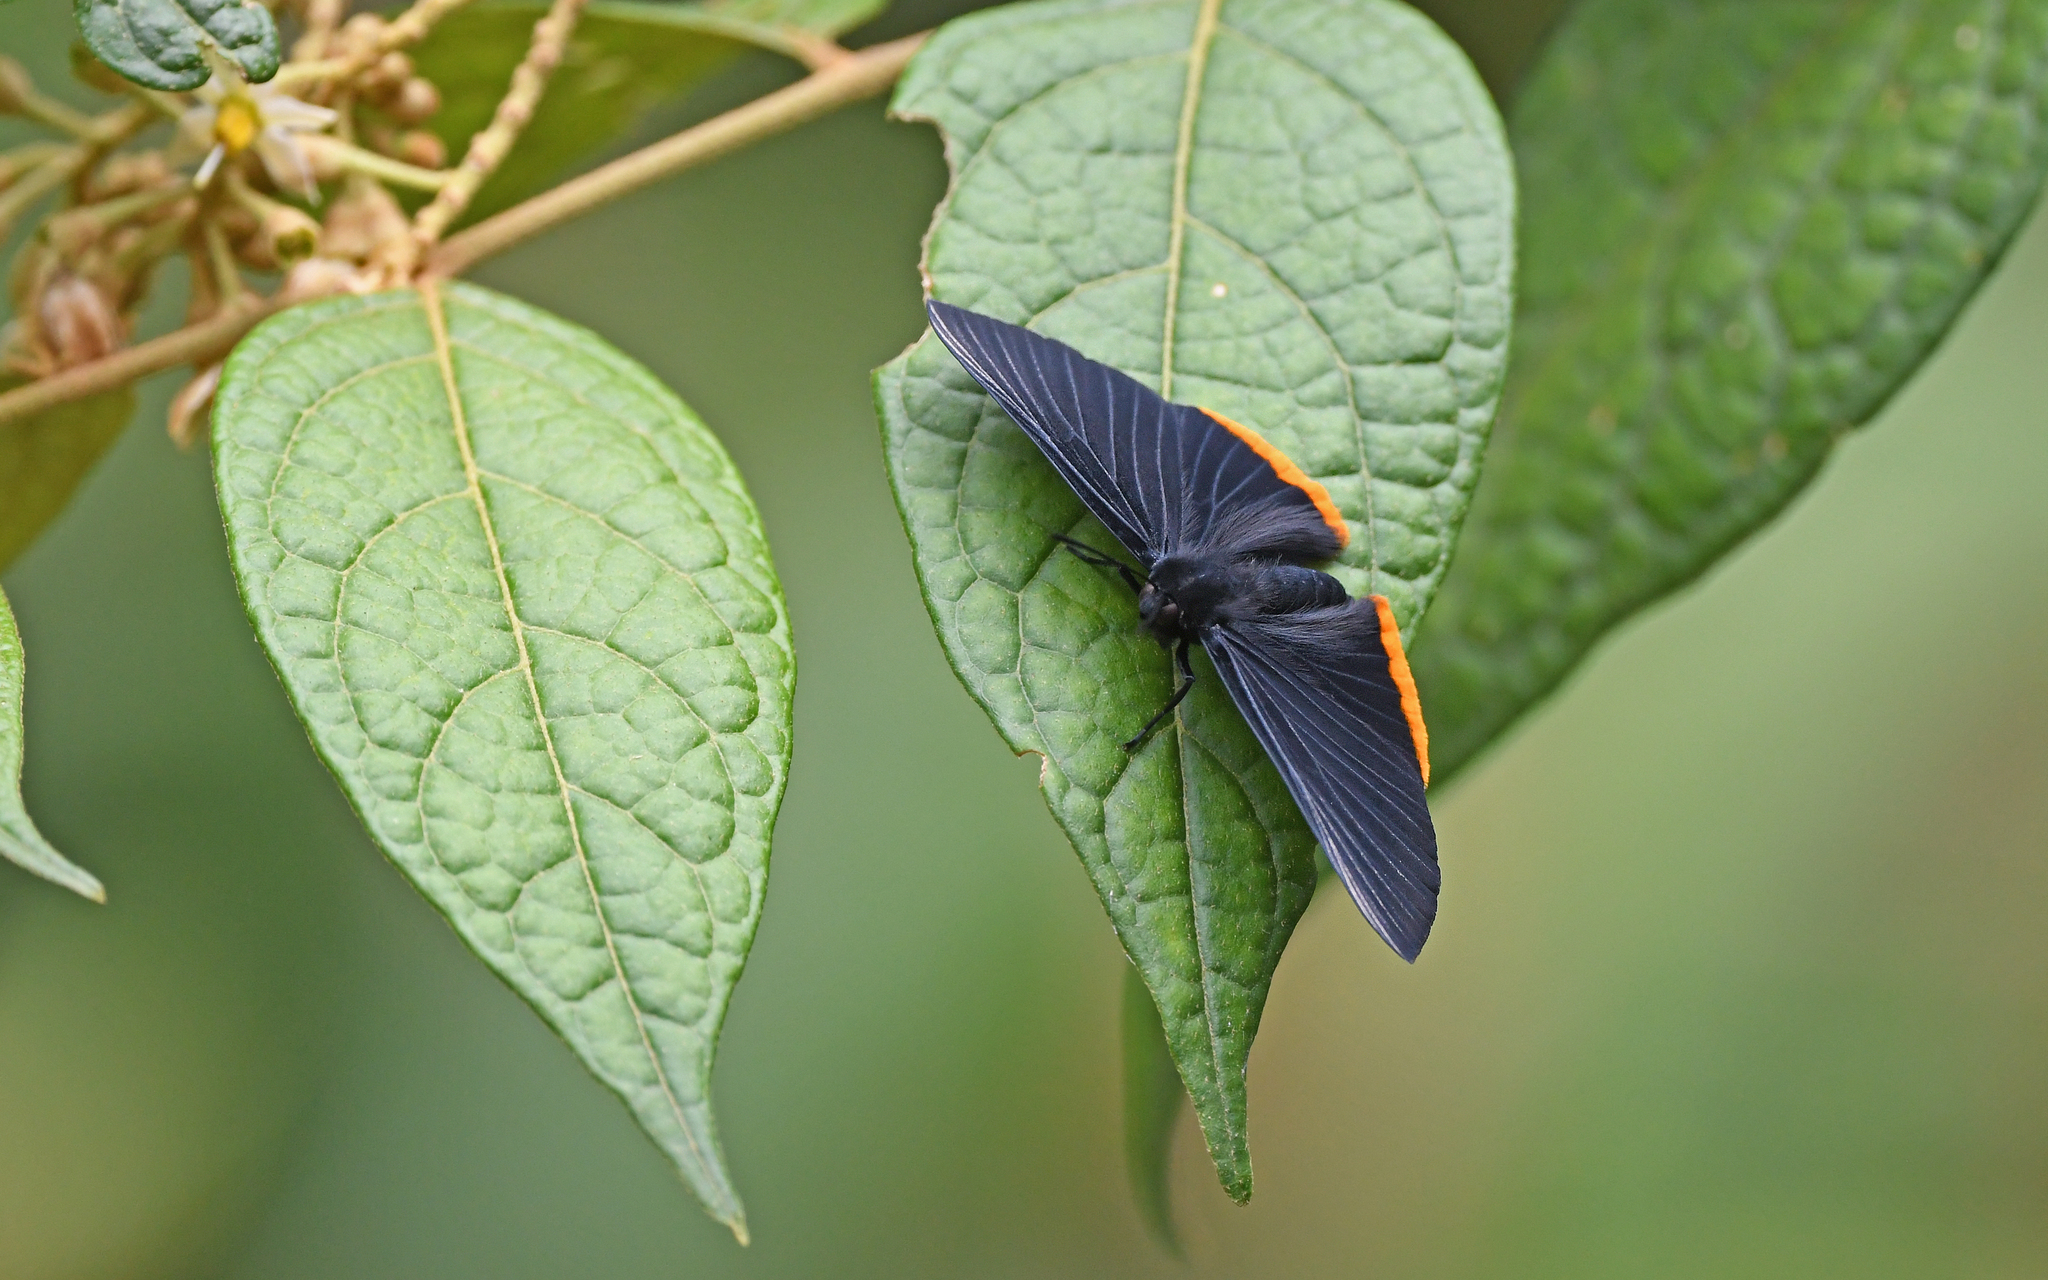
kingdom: Animalia
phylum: Arthropoda
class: Insecta
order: Lepidoptera
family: Lycaenidae
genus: Melanis
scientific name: Melanis
